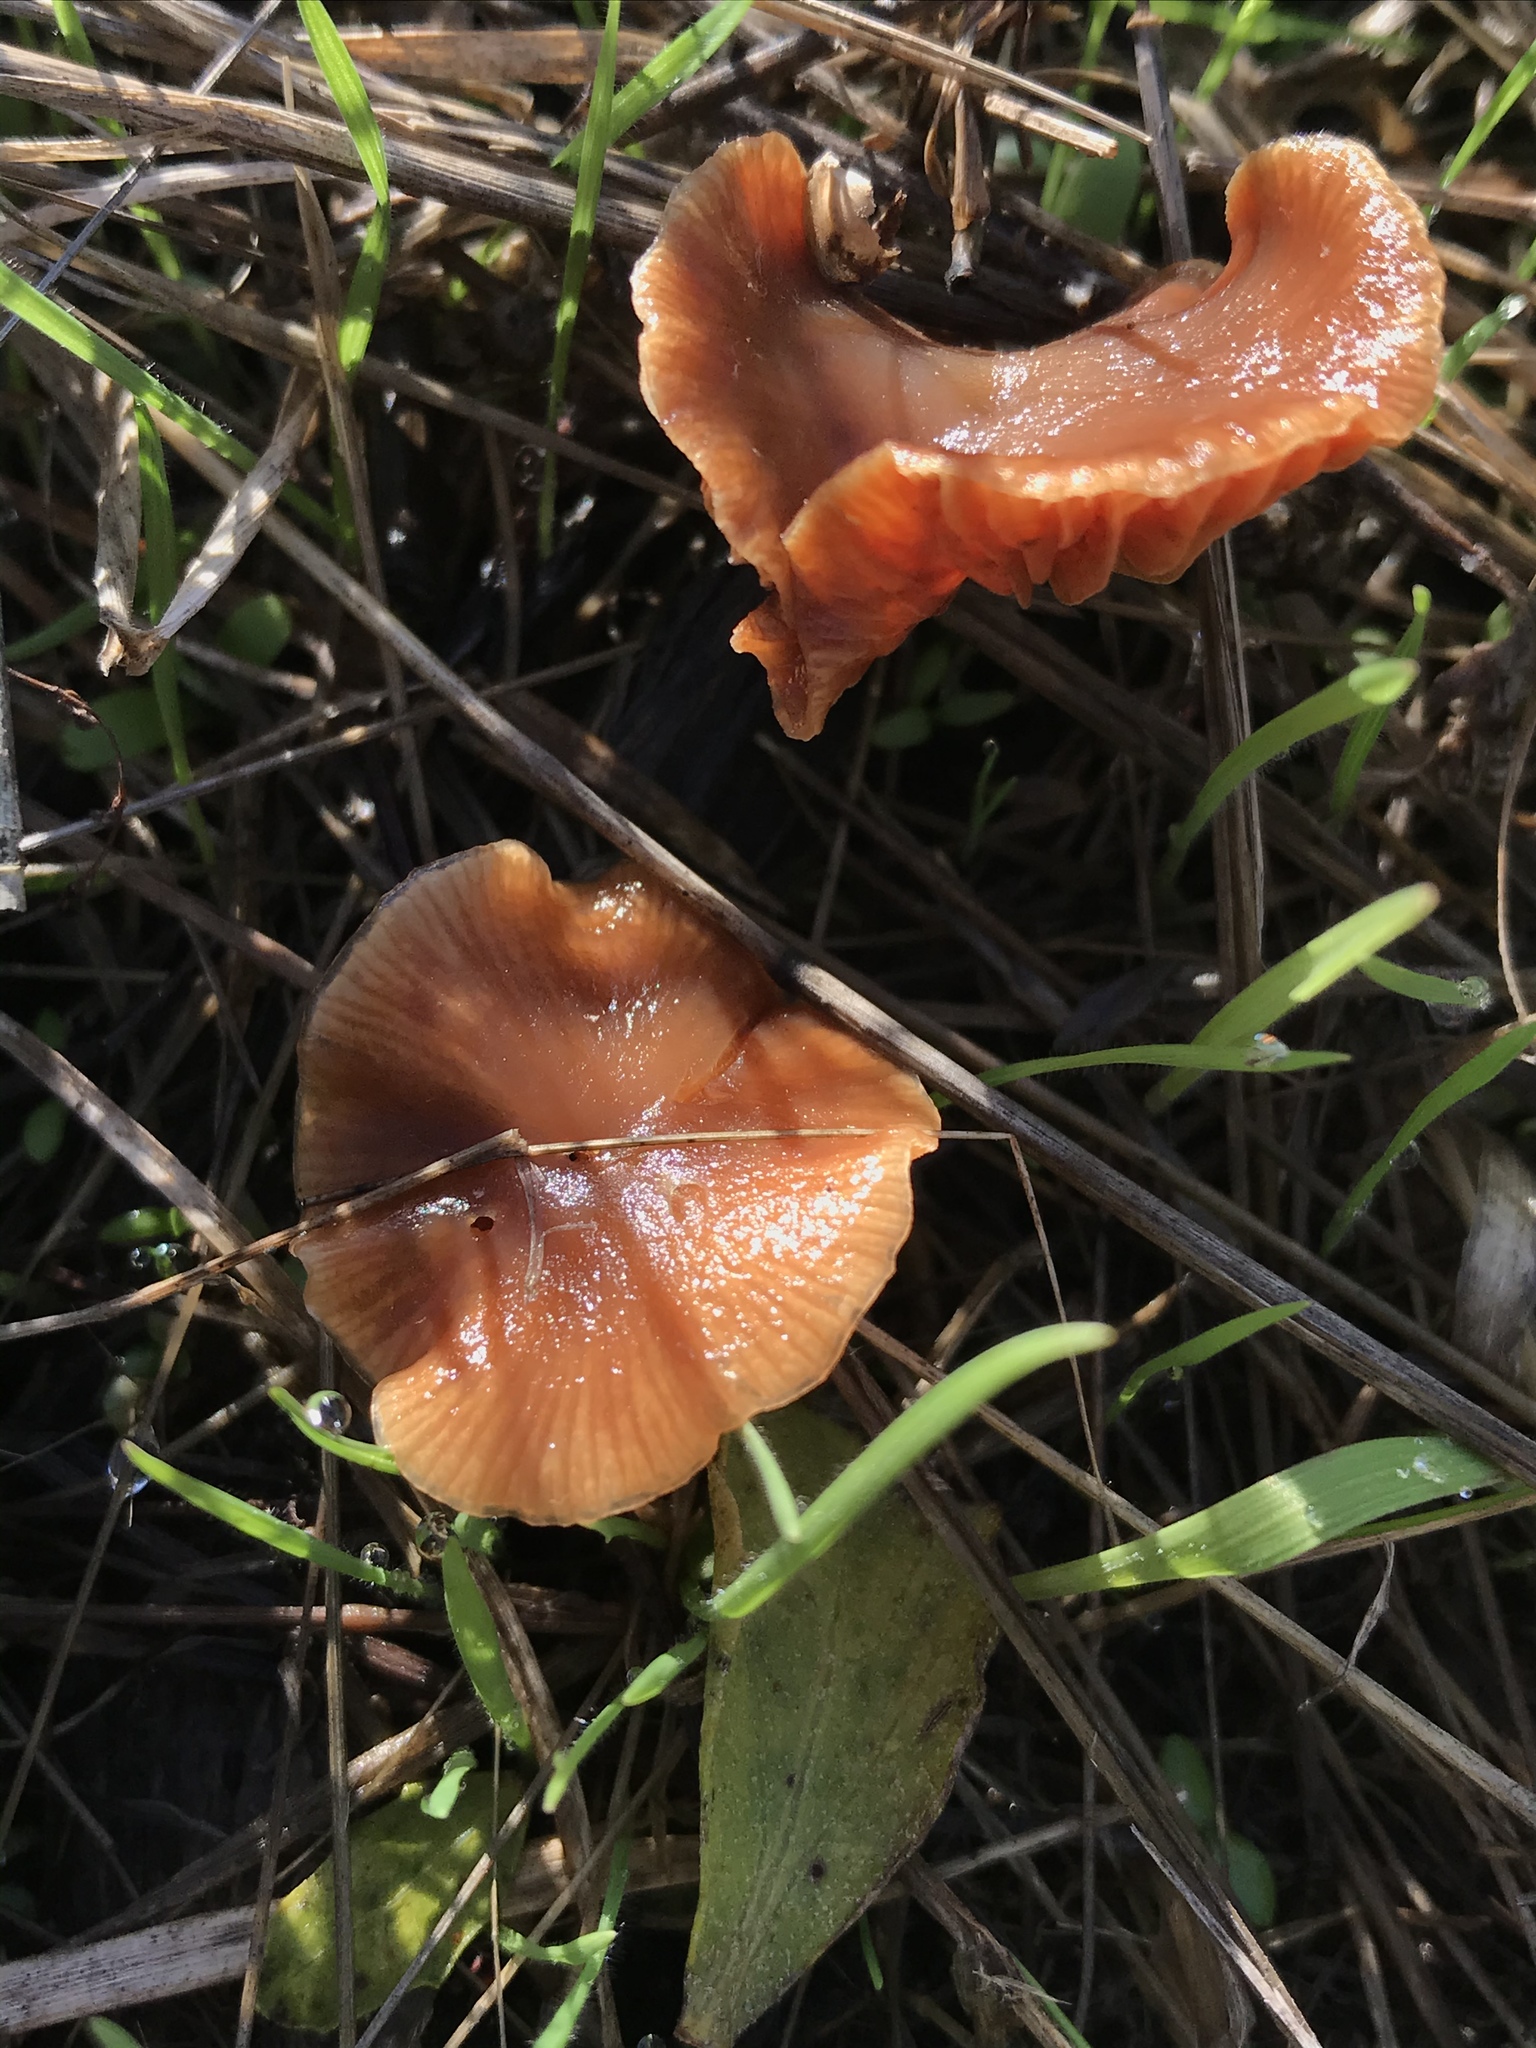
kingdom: Fungi
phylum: Basidiomycota
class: Agaricomycetes
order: Agaricales
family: Tubariaceae
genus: Tubaria
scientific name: Tubaria furfuracea
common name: Scurfy twiglet
